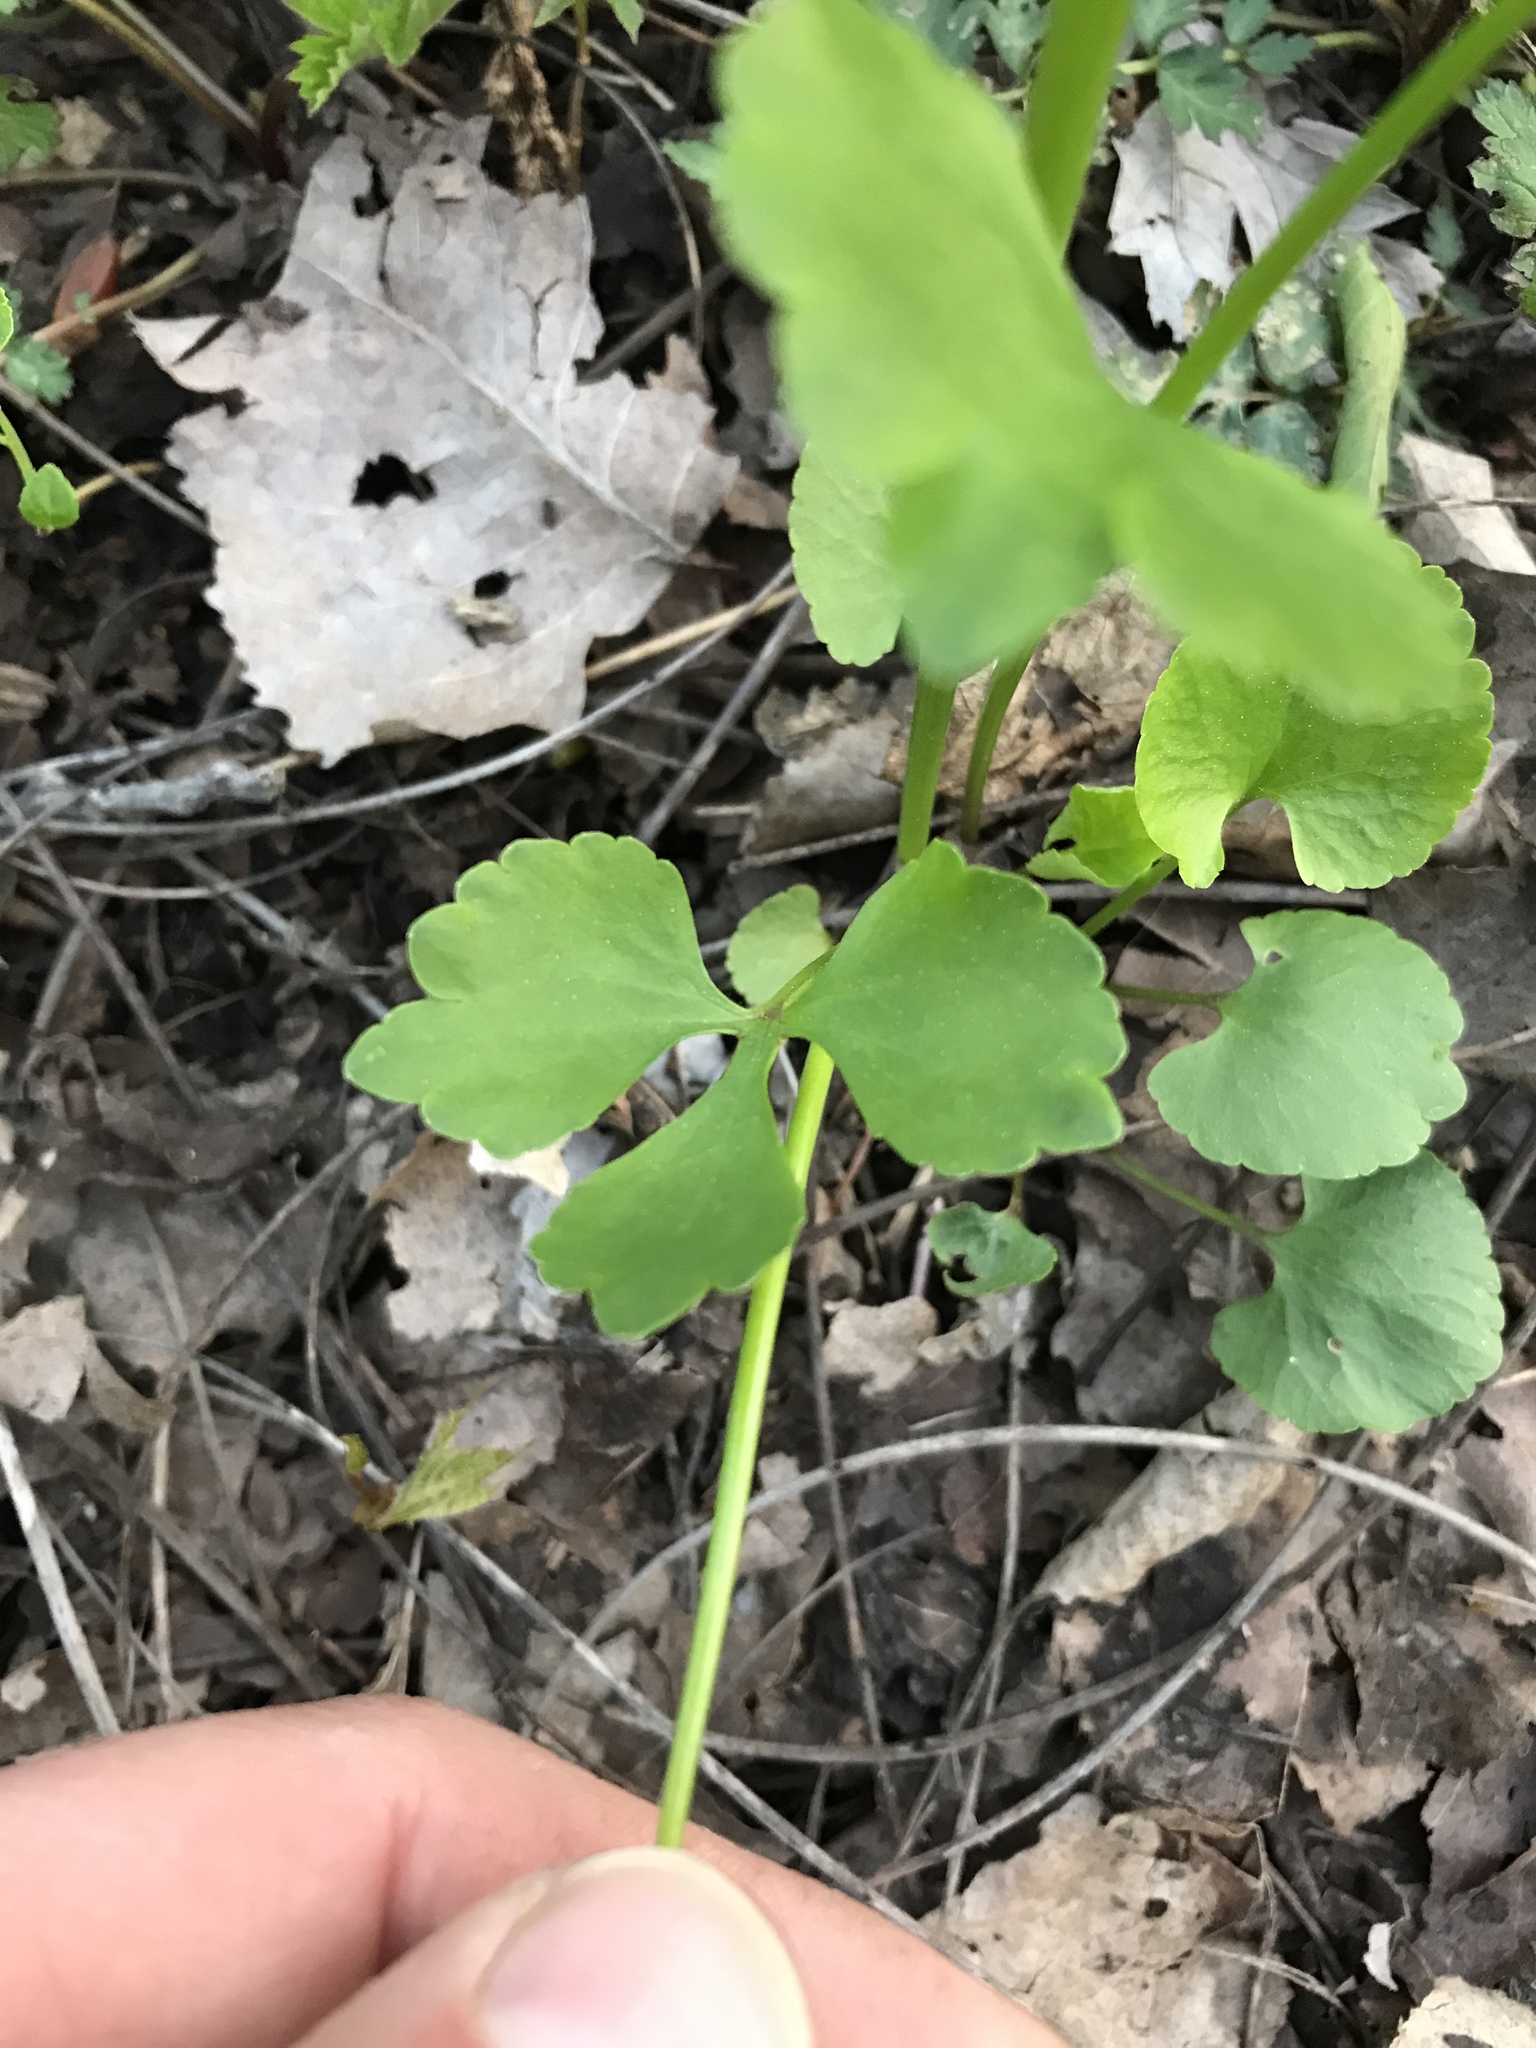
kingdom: Plantae
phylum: Tracheophyta
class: Magnoliopsida
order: Ranunculales
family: Ranunculaceae
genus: Ranunculus
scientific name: Ranunculus abortivus
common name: Early wood buttercup
